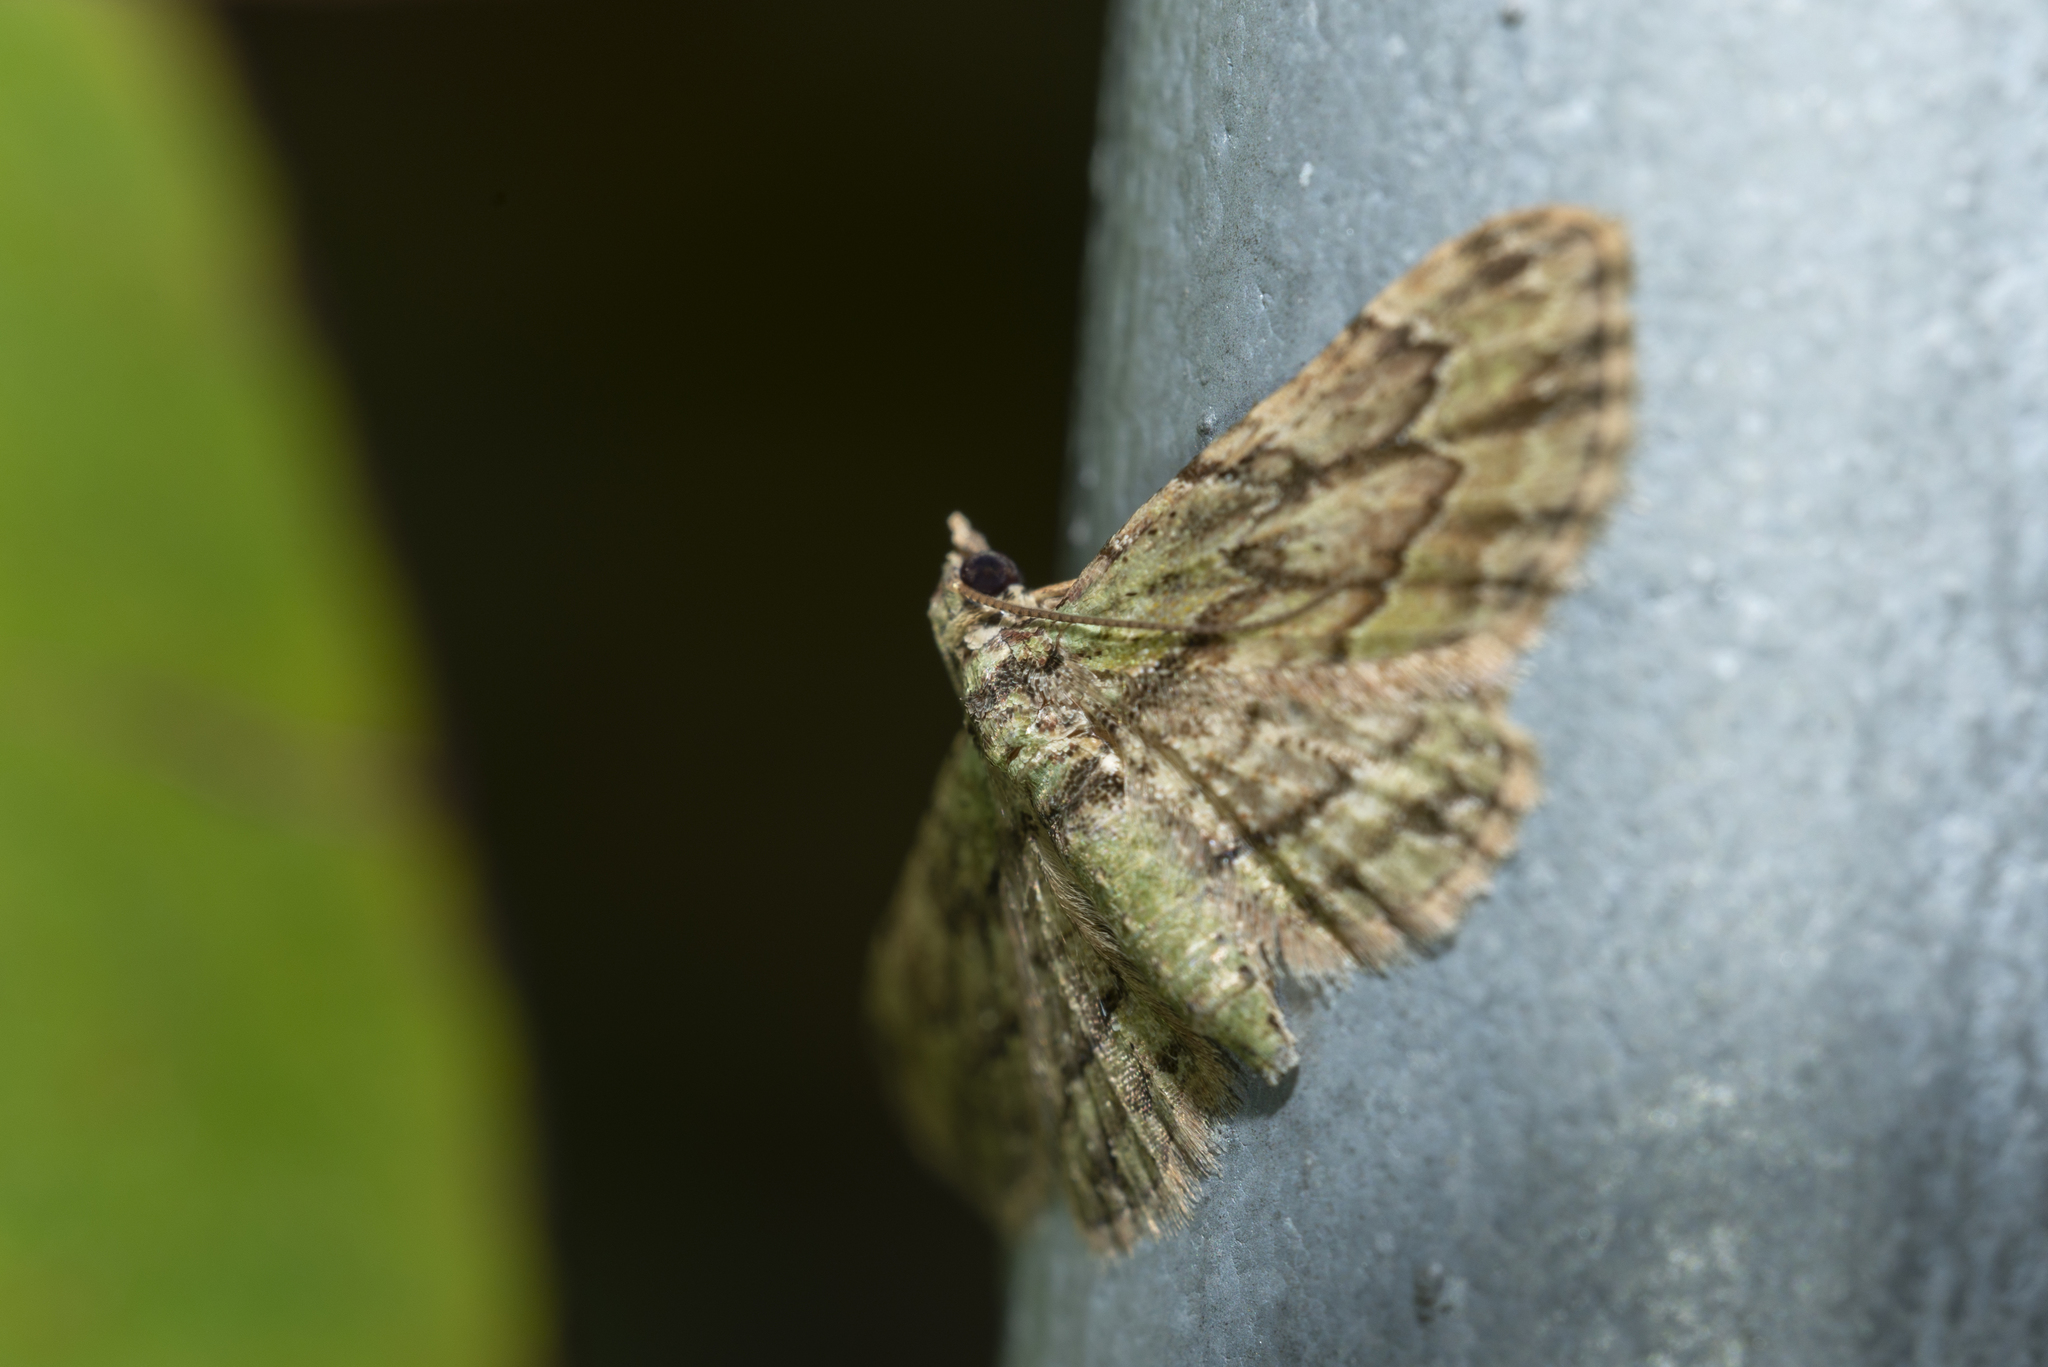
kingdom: Animalia
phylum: Arthropoda
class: Insecta
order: Lepidoptera
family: Geometridae
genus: Gymnoscelis
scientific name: Gymnoscelis biangulata
